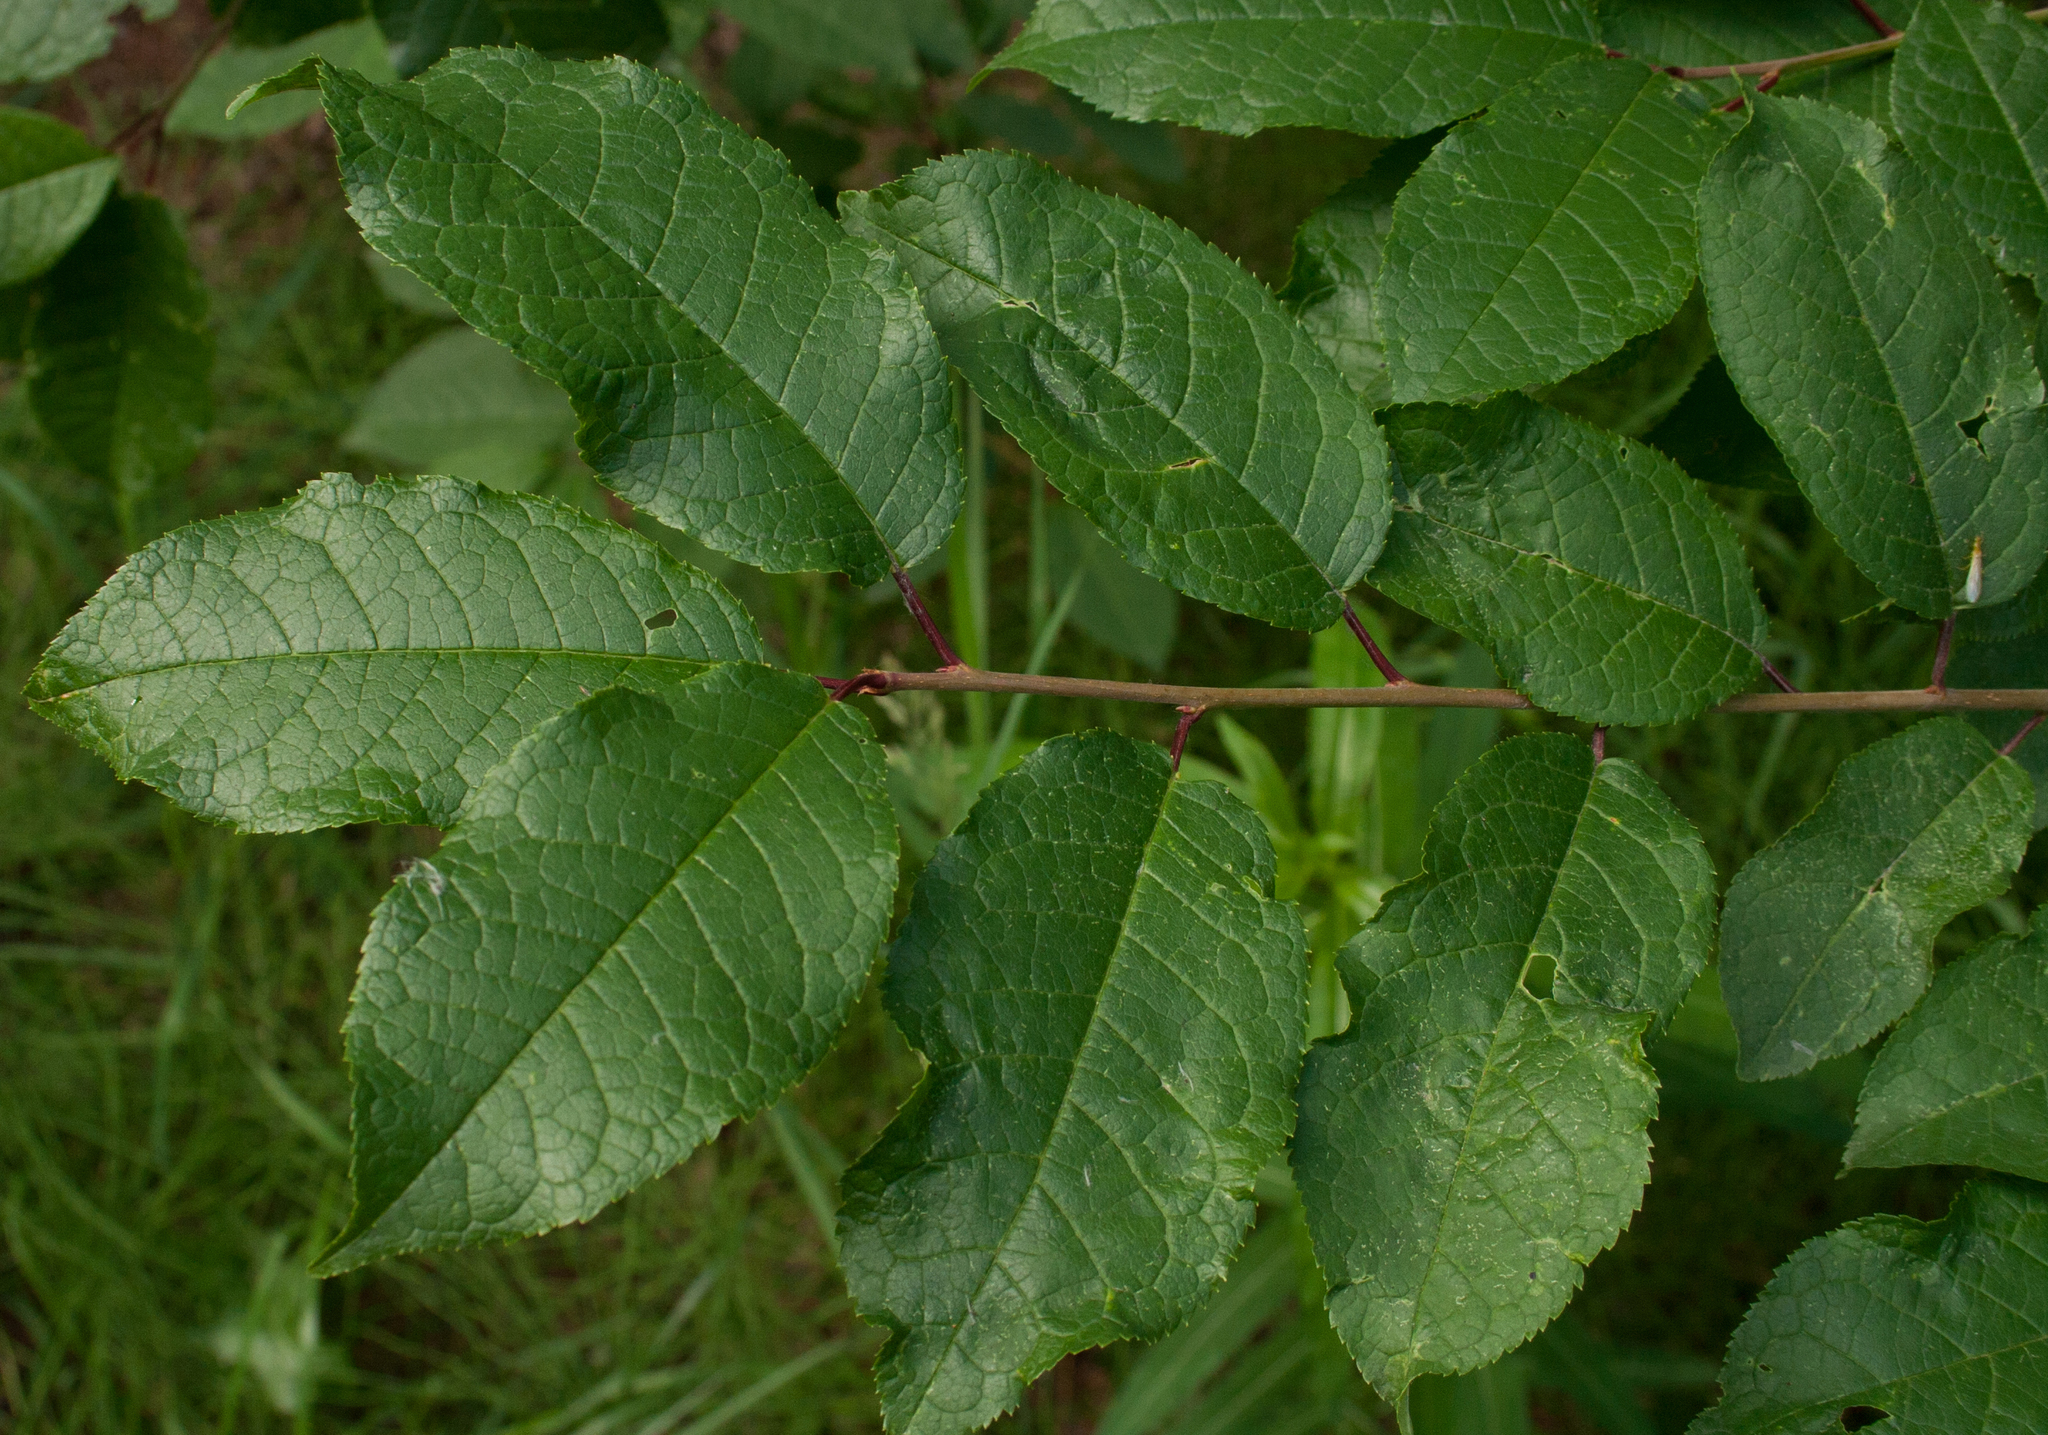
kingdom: Plantae
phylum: Tracheophyta
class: Magnoliopsida
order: Rosales
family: Rosaceae
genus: Prunus
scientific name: Prunus padus
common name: Bird cherry
